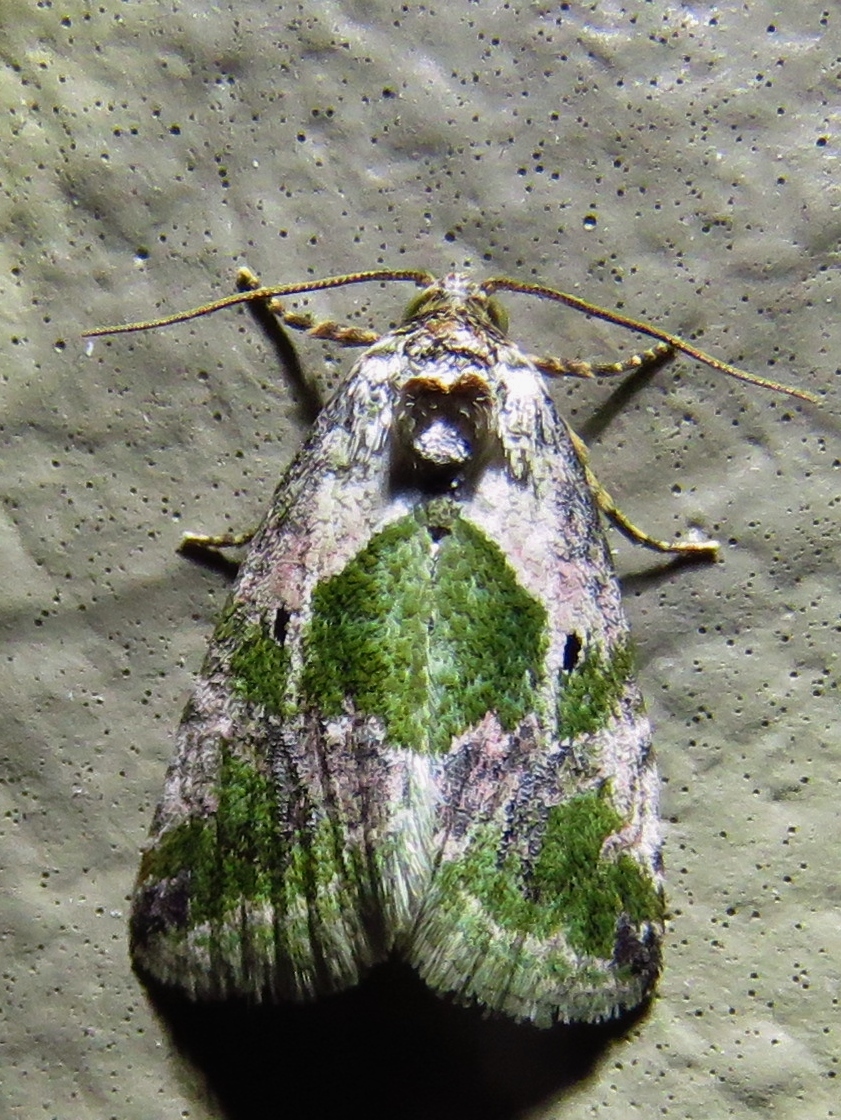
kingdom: Animalia
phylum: Arthropoda
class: Insecta
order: Lepidoptera
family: Noctuidae
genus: Maliattha
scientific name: Maliattha synochitis
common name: Black-dotted glyph
